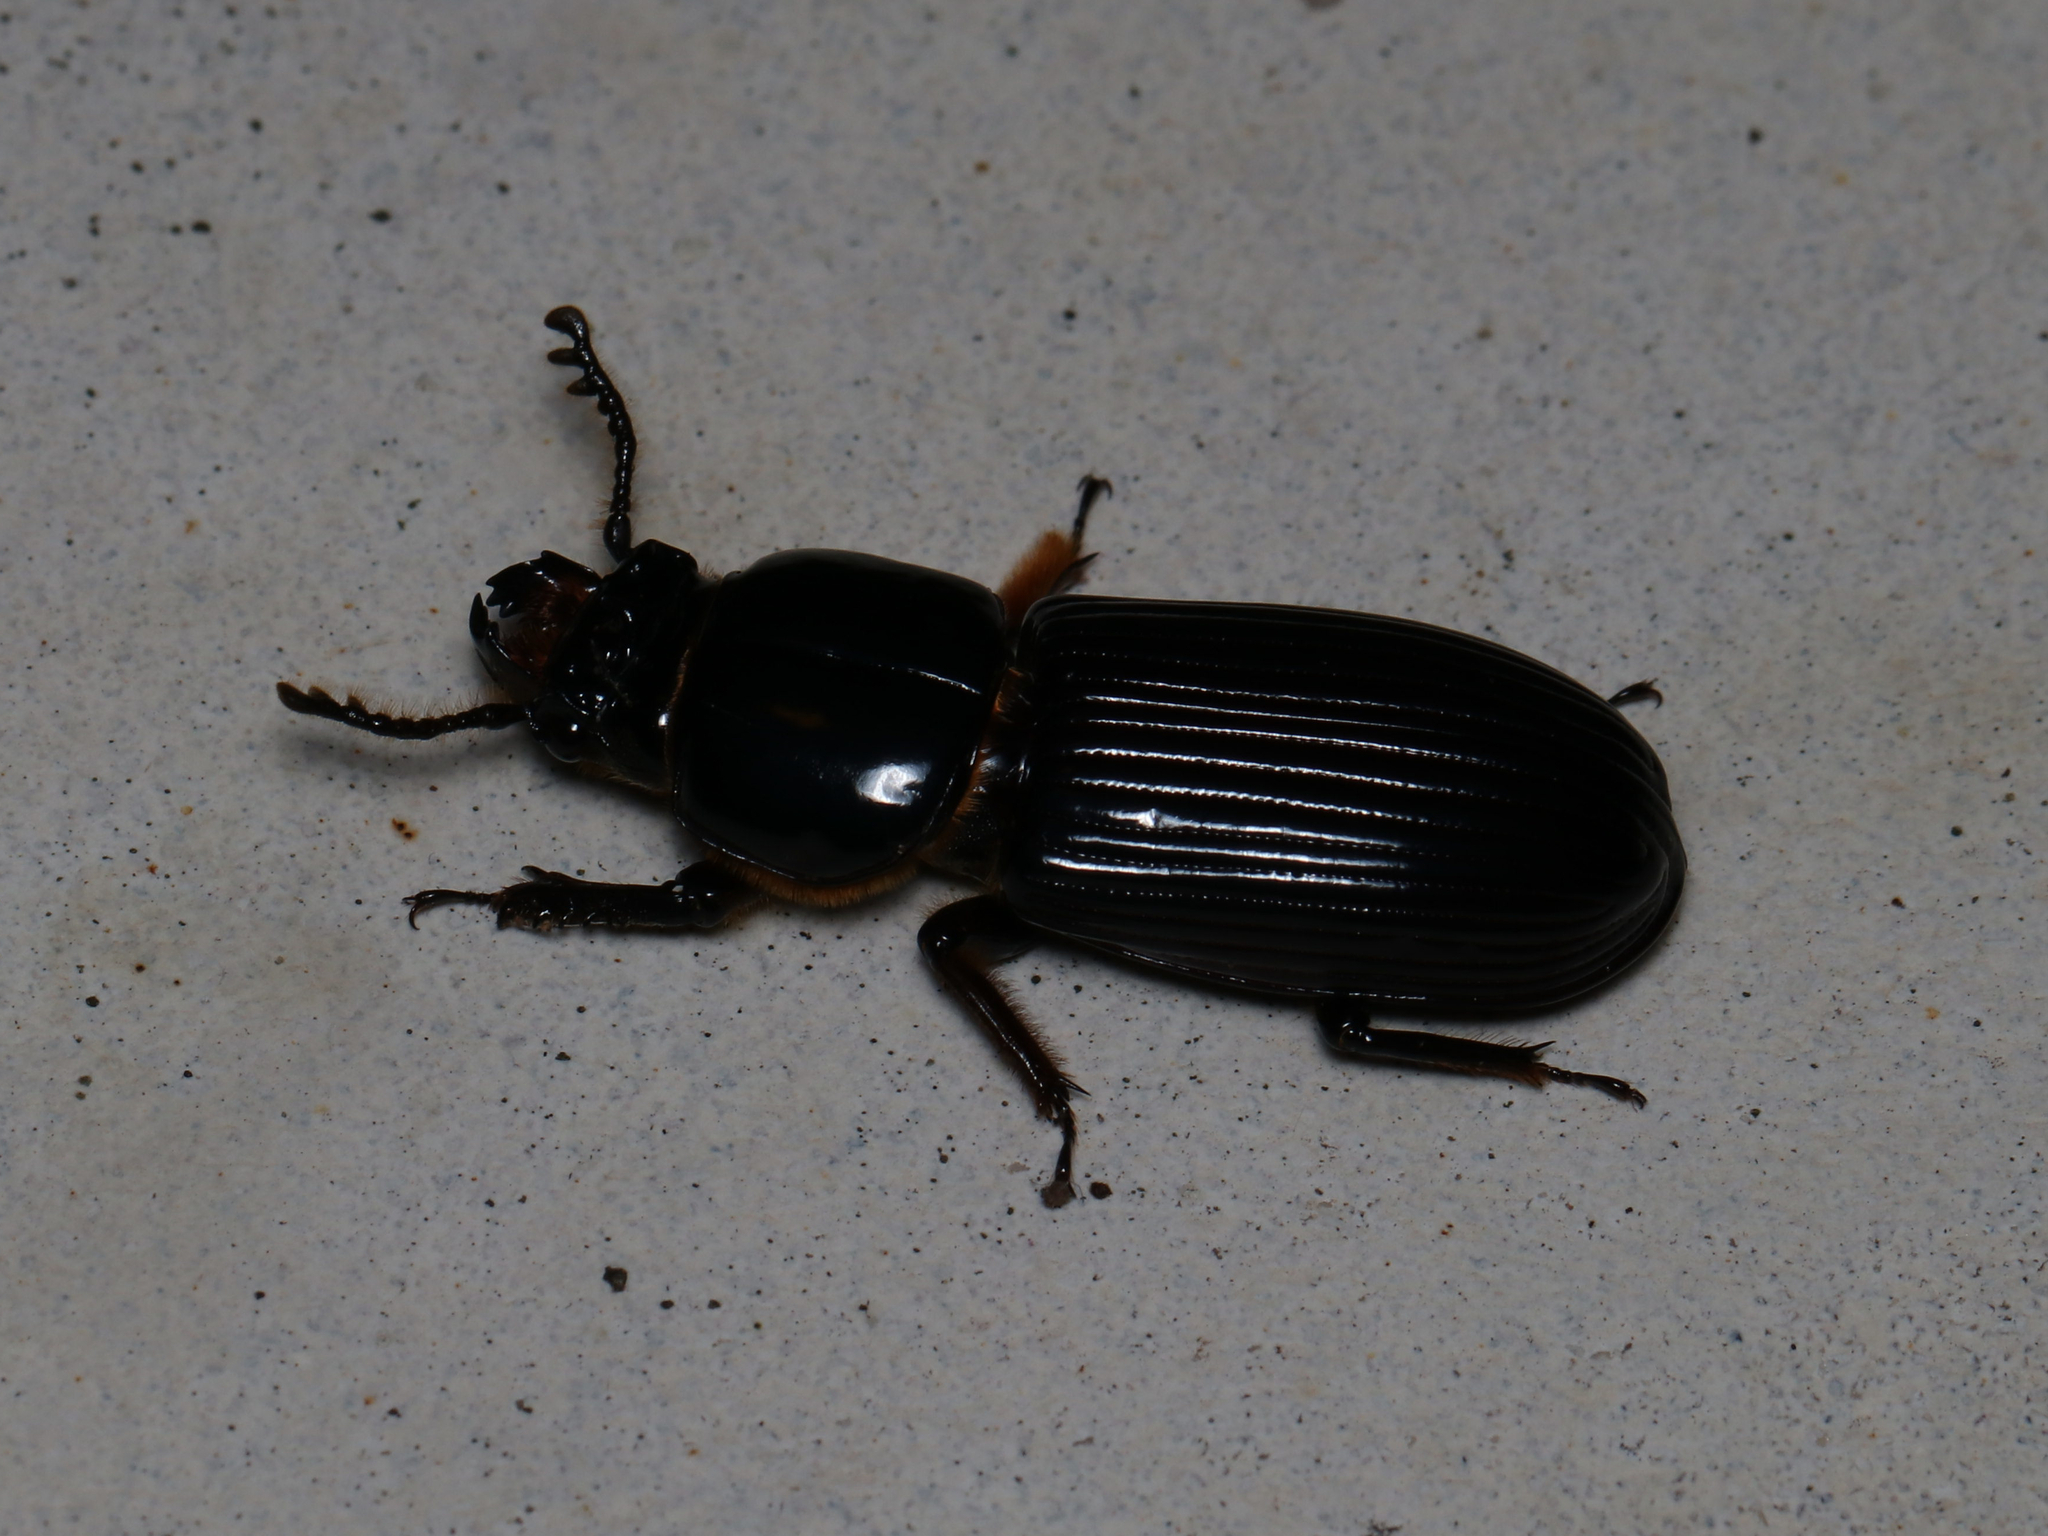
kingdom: Animalia
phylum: Arthropoda
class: Insecta
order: Coleoptera
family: Passalidae
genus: Odontotaenius
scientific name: Odontotaenius disjunctus
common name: Patent leather beetle
